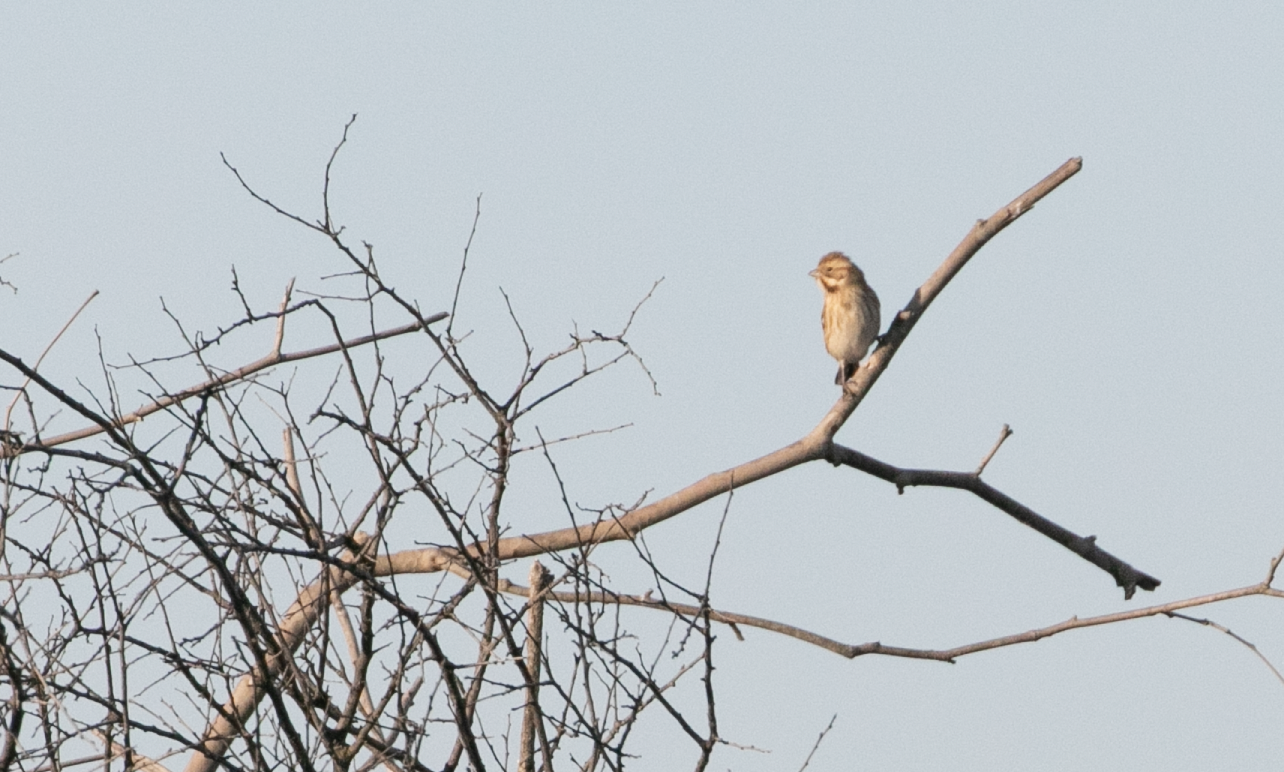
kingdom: Animalia
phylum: Chordata
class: Aves
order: Passeriformes
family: Emberizidae
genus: Emberiza
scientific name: Emberiza schoeniclus
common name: Reed bunting
